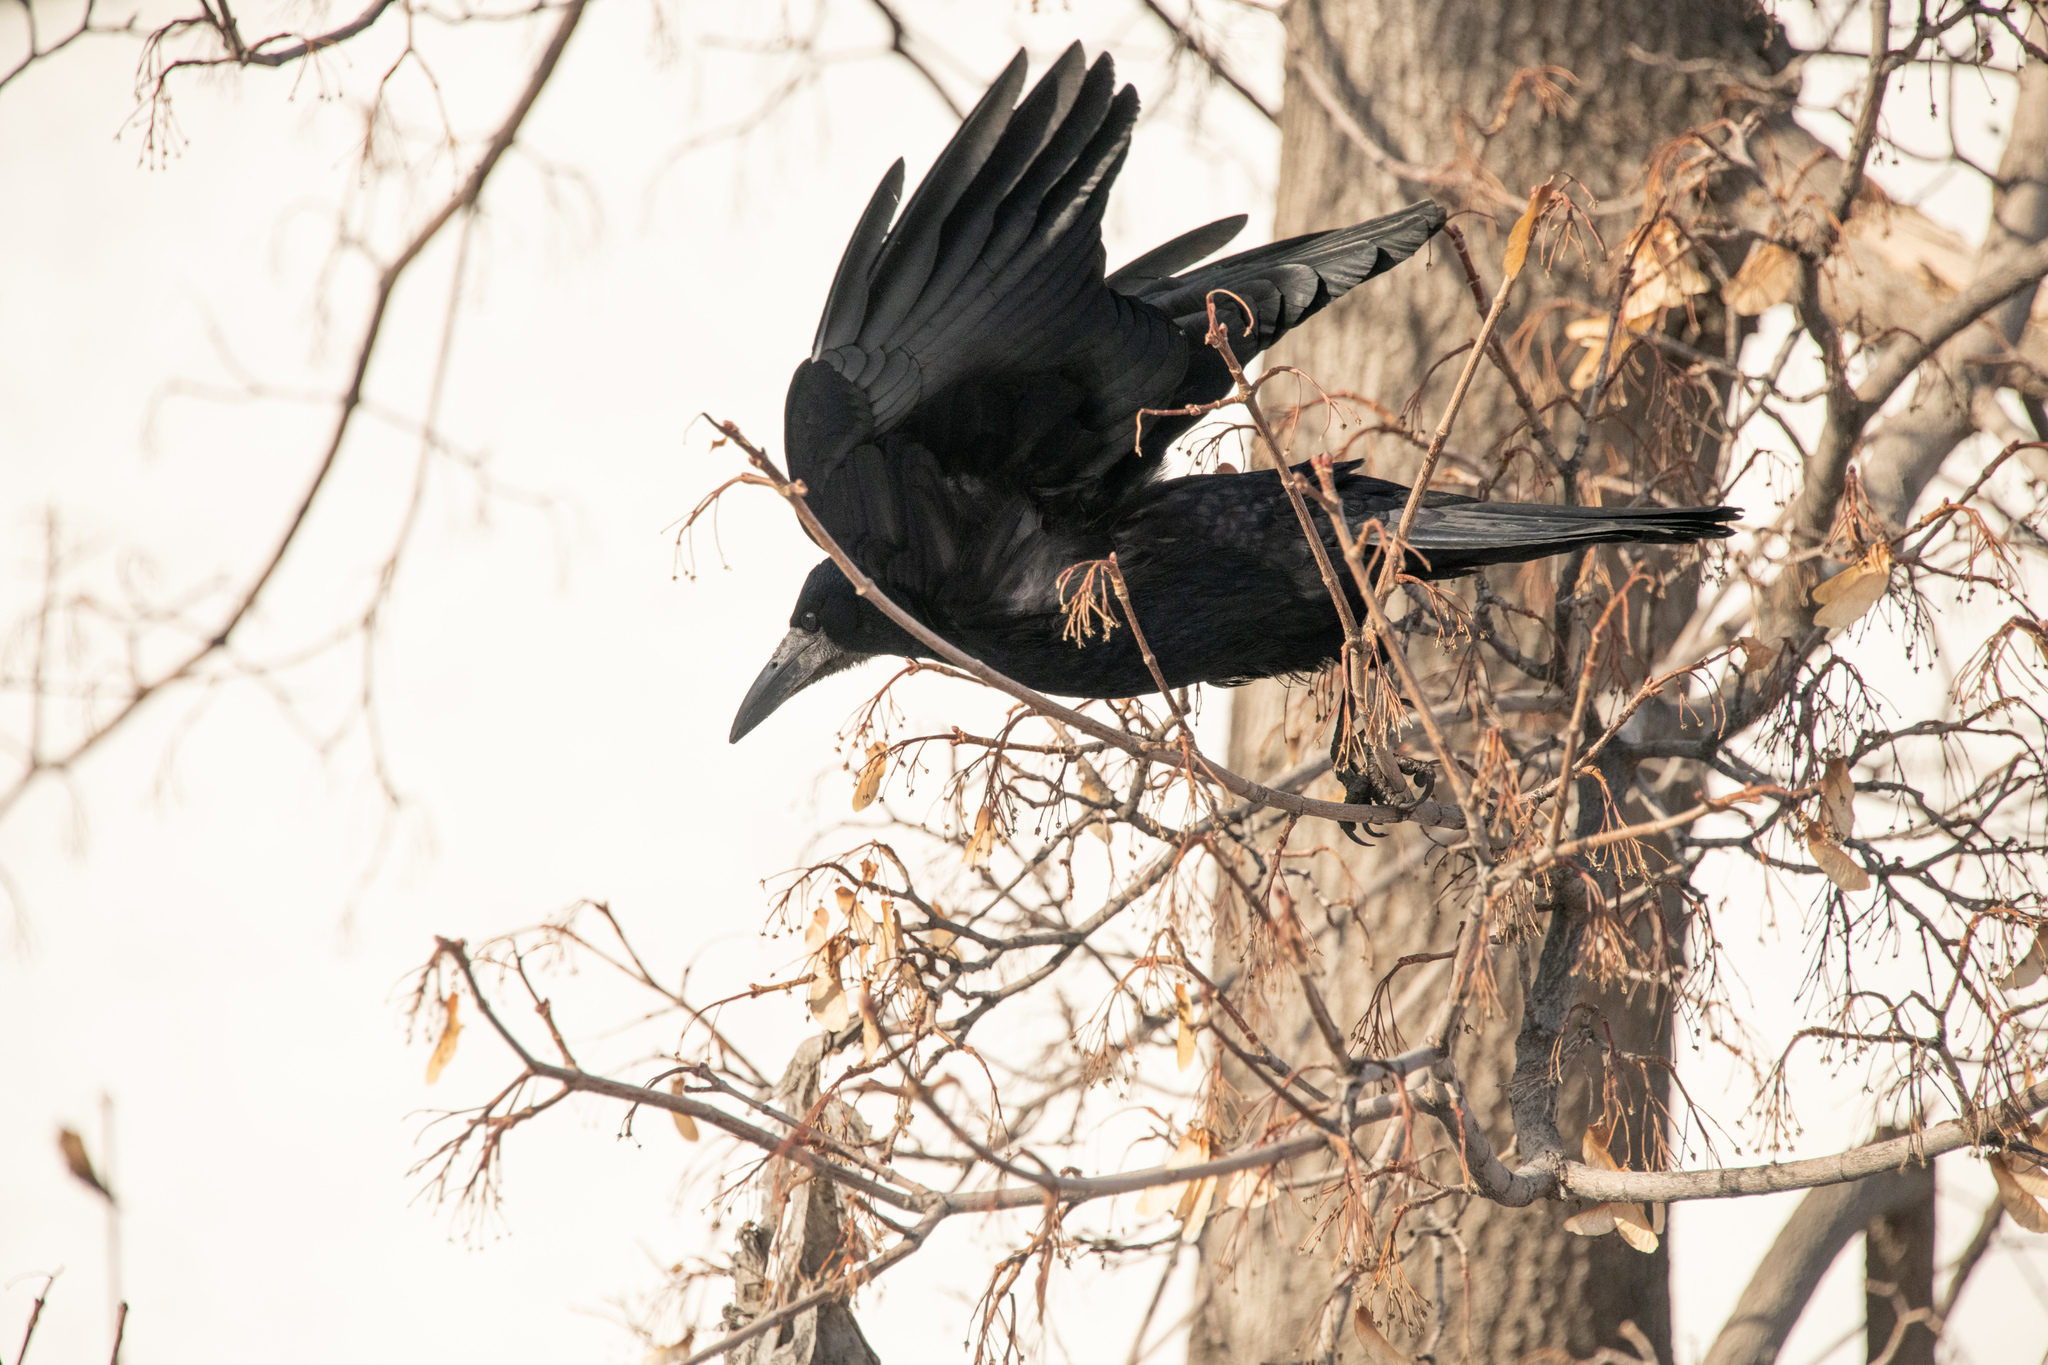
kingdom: Animalia
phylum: Chordata
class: Aves
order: Passeriformes
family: Corvidae
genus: Corvus
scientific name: Corvus frugilegus
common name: Rook
